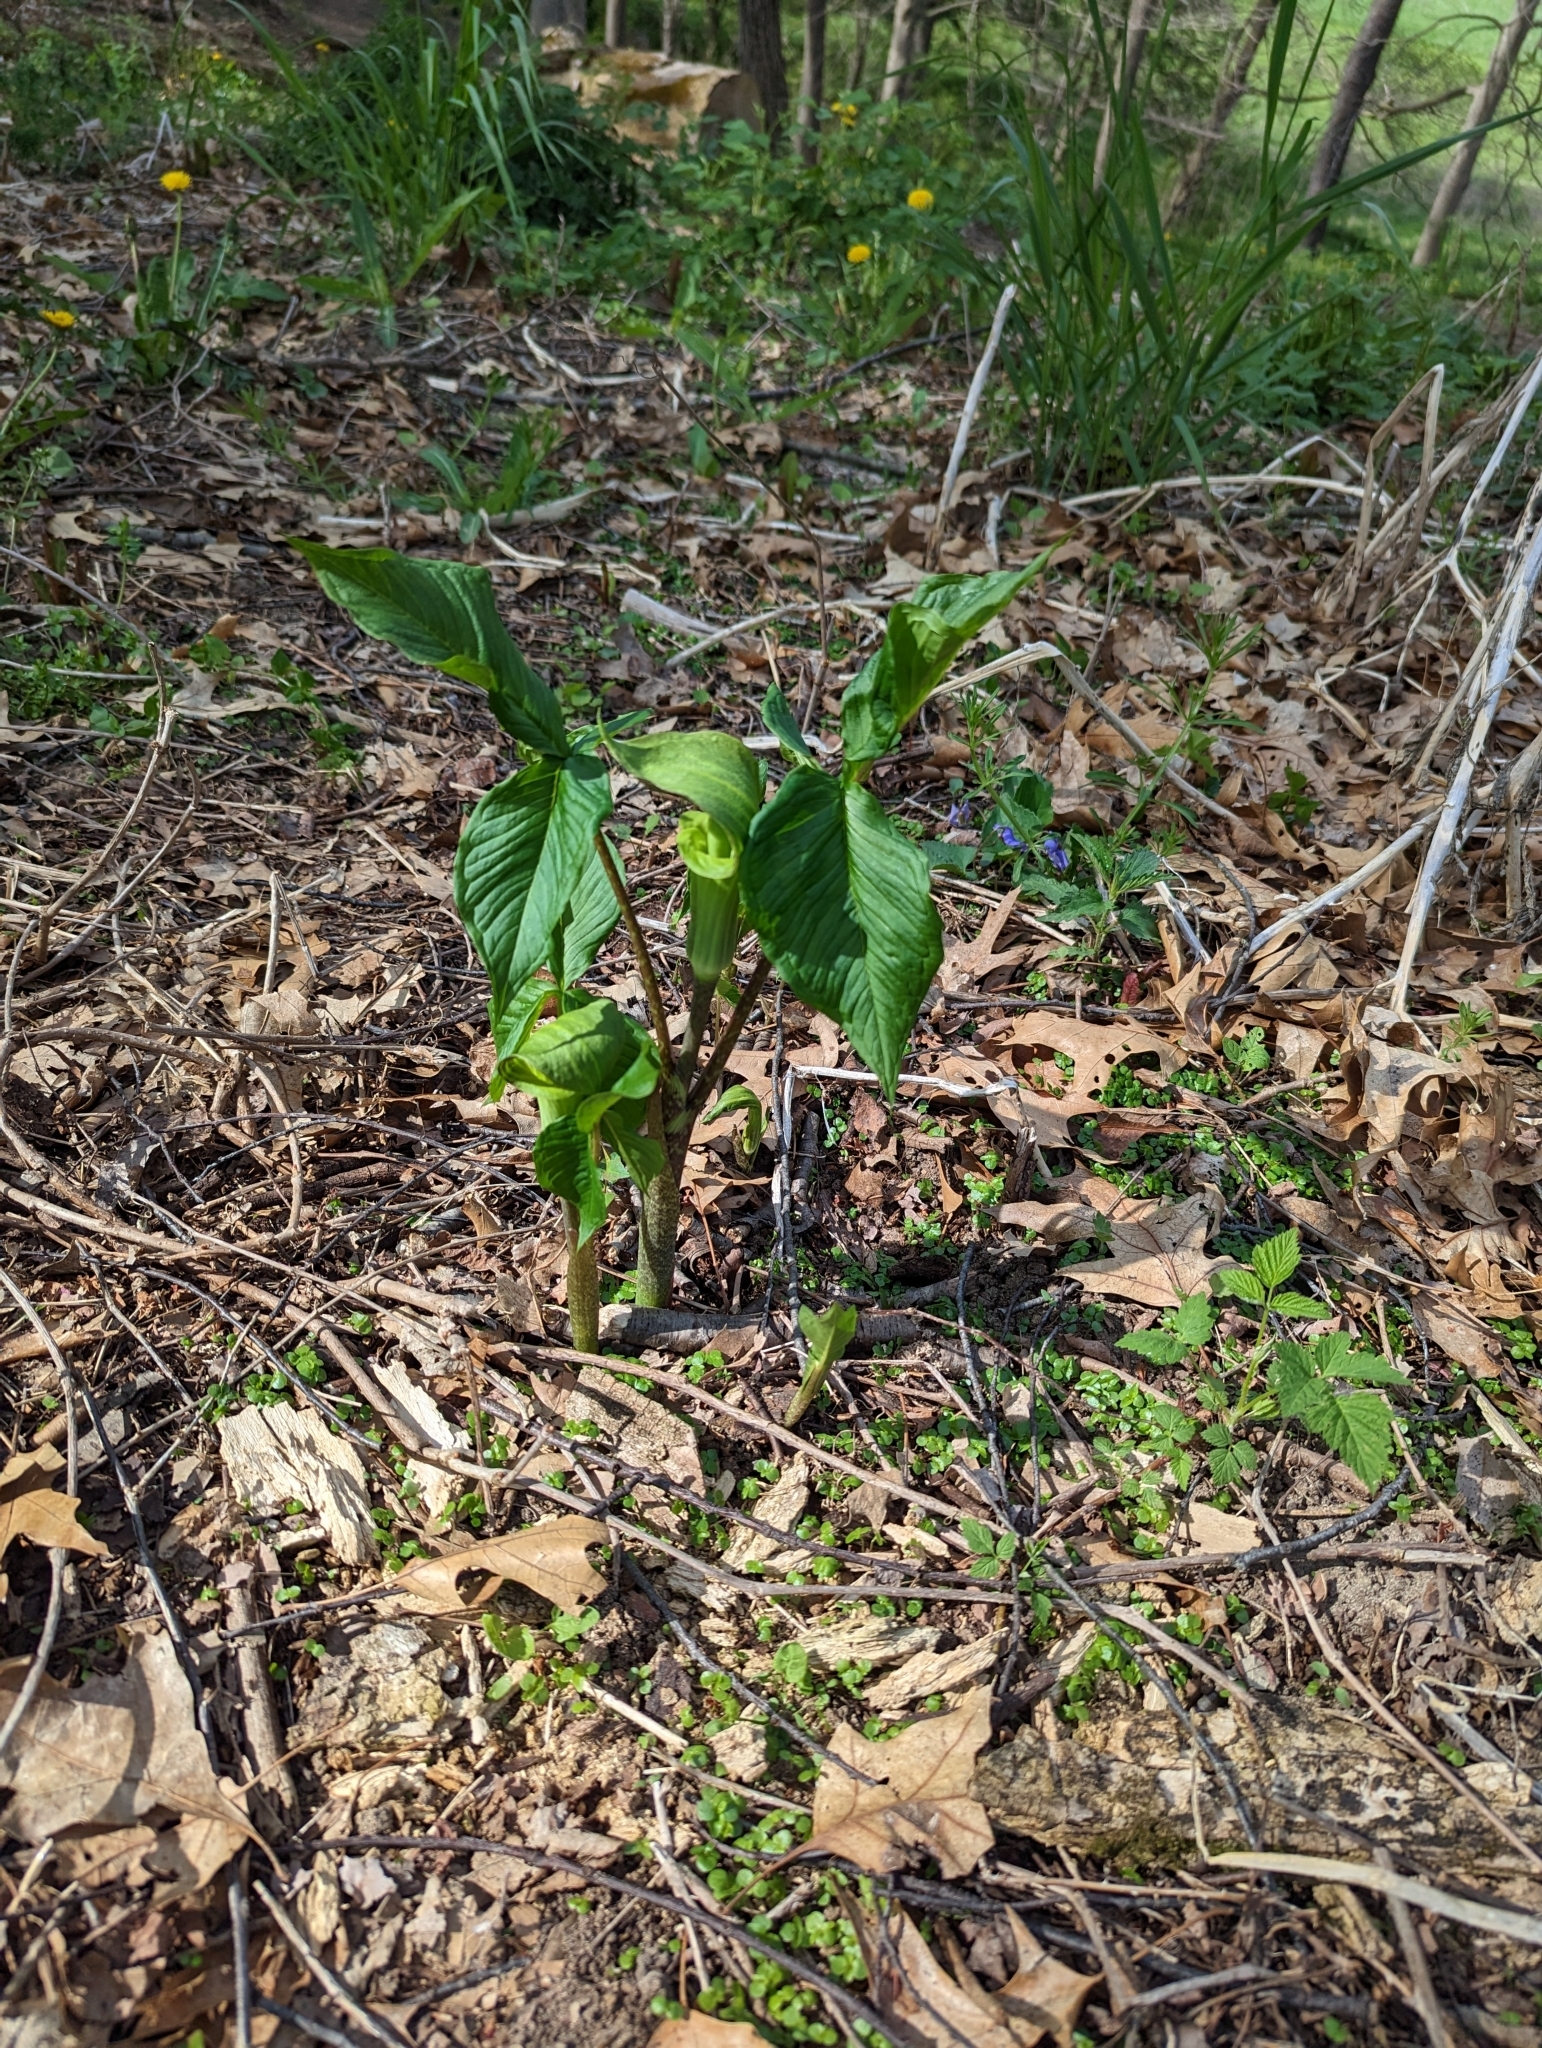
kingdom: Plantae
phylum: Tracheophyta
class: Liliopsida
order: Alismatales
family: Araceae
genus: Arisaema
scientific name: Arisaema triphyllum
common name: Jack-in-the-pulpit
